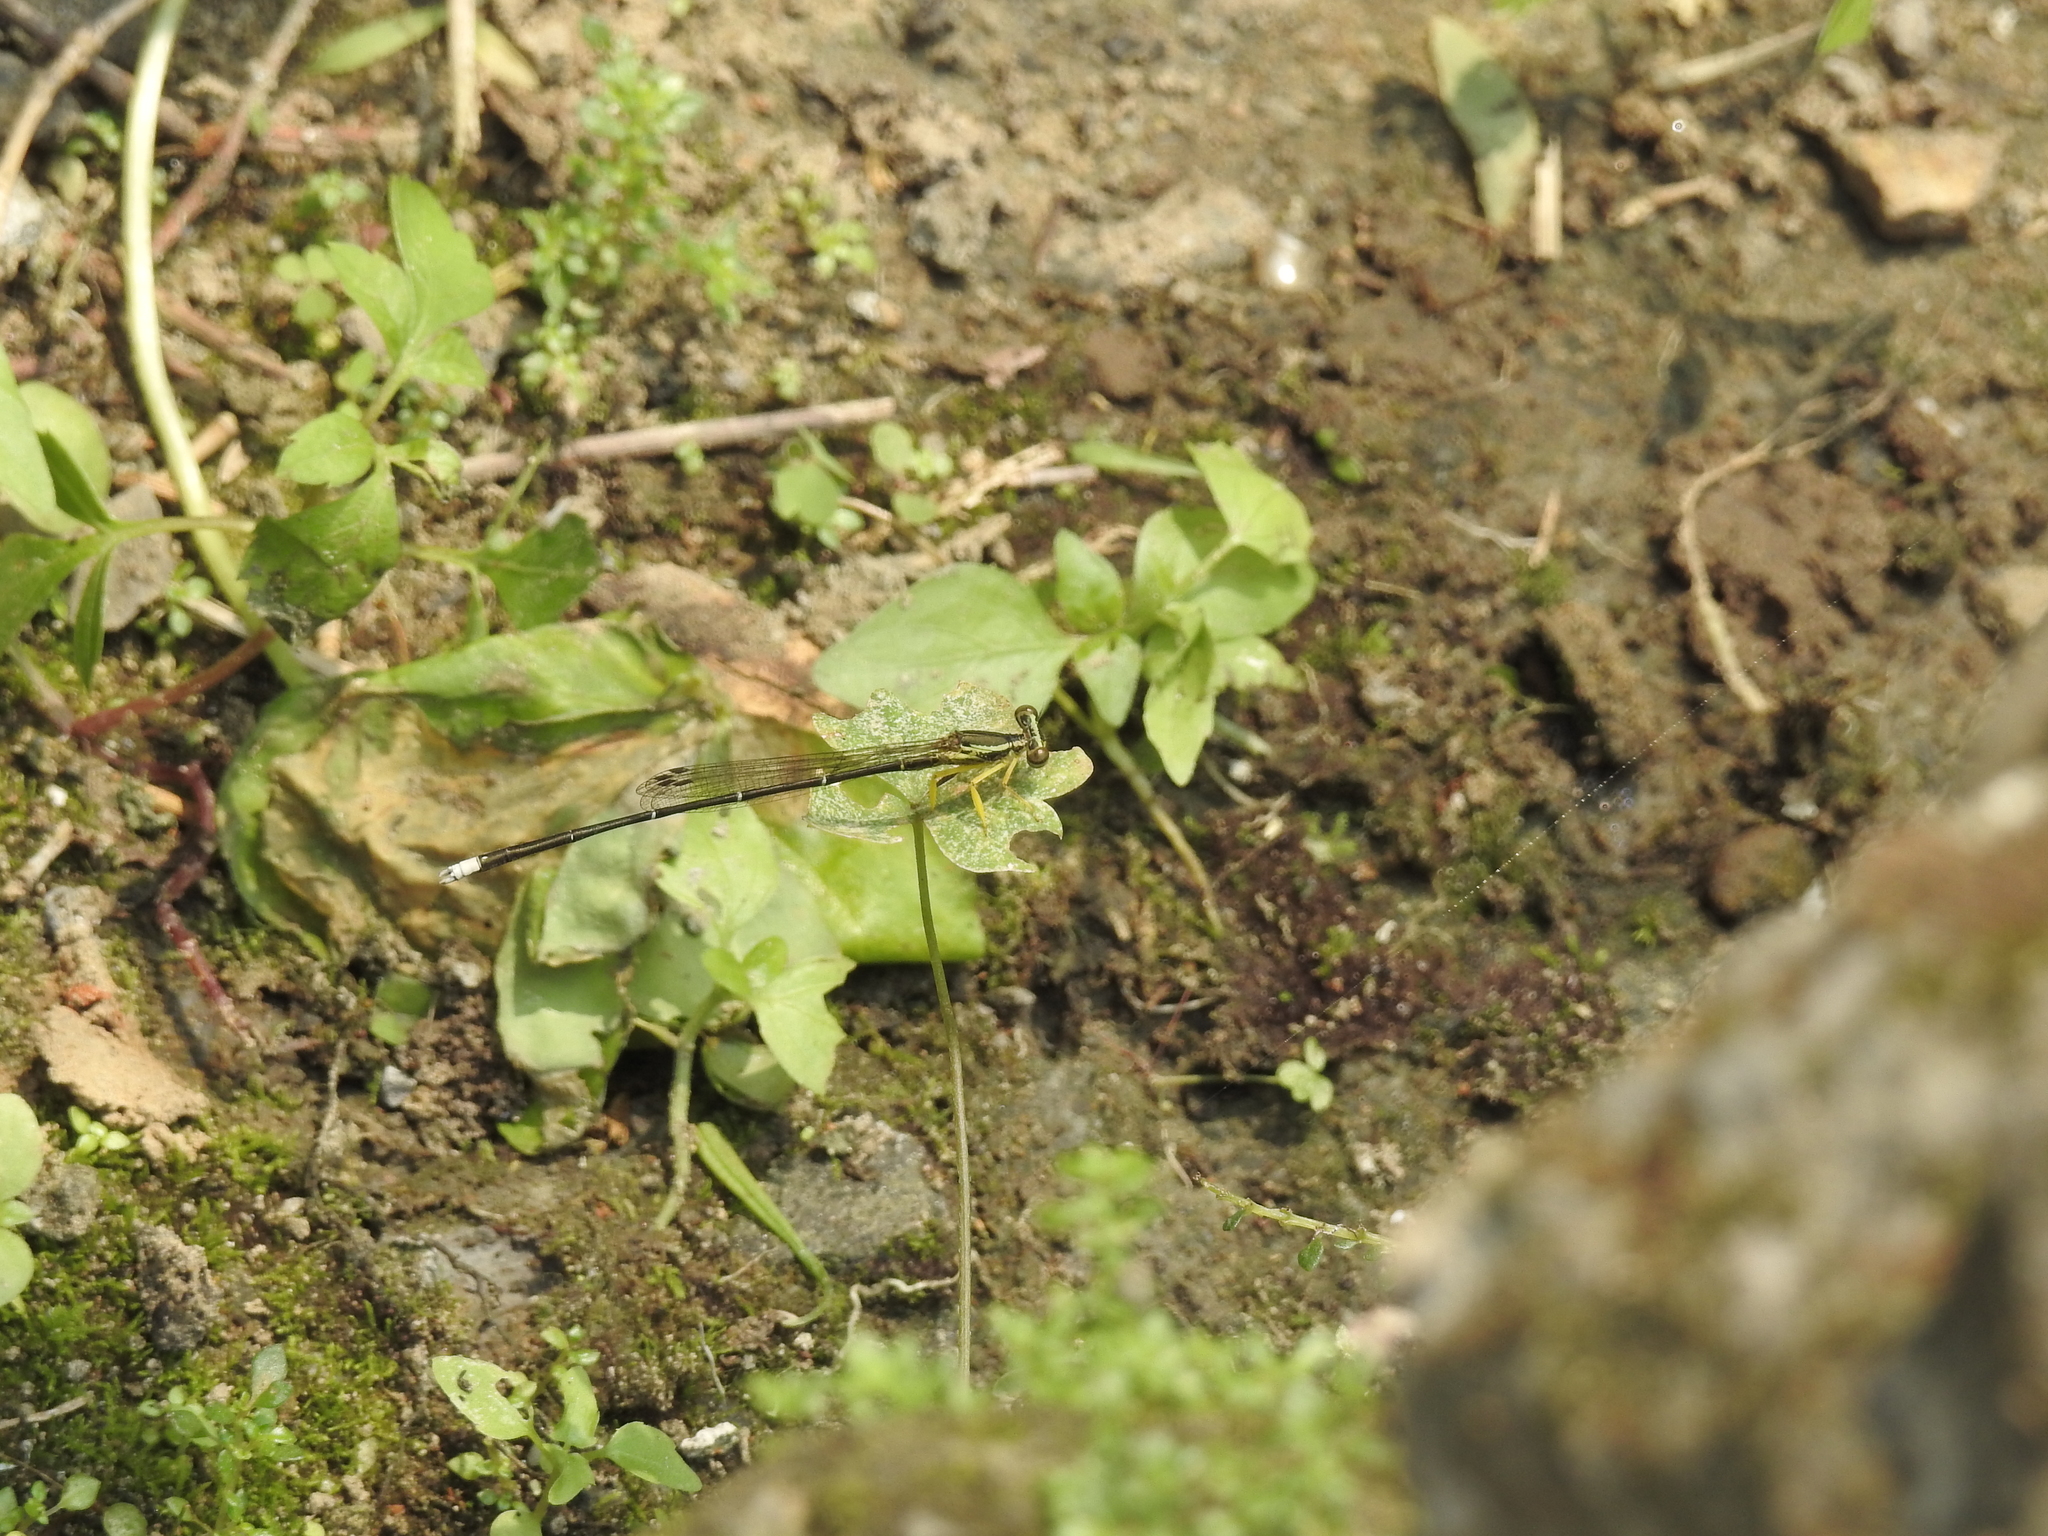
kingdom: Animalia
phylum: Arthropoda
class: Insecta
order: Odonata
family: Platycnemididae
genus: Copera
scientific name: Copera marginipes
